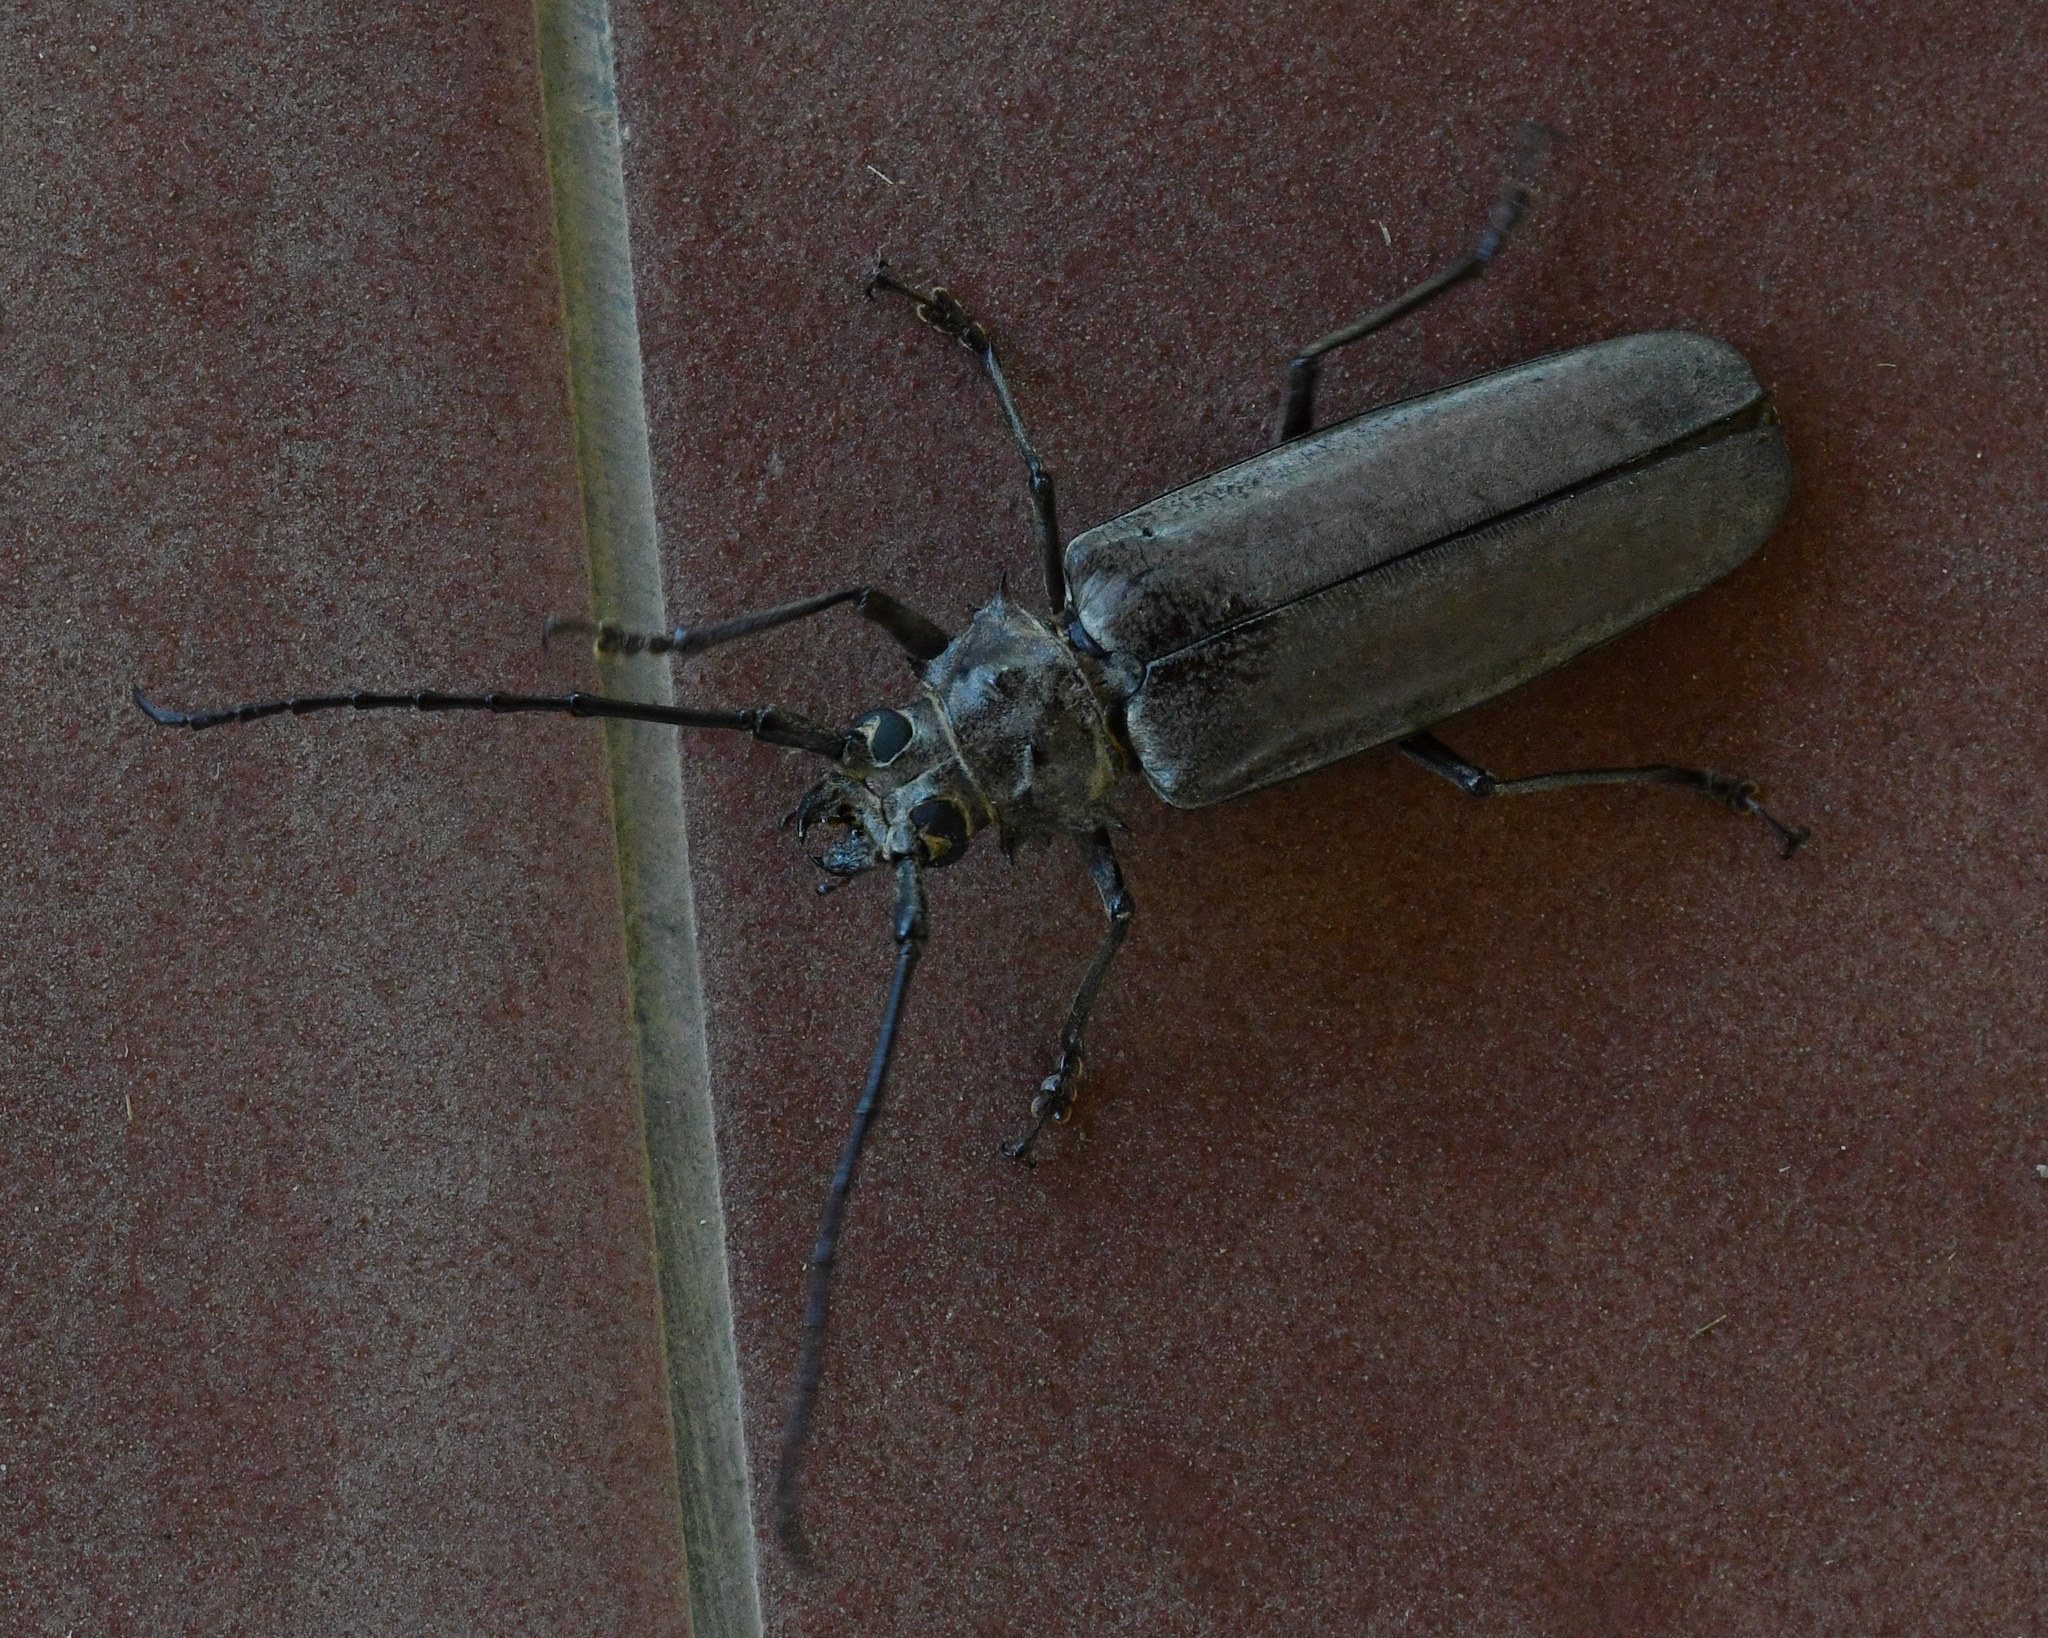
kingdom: Animalia
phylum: Arthropoda
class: Insecta
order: Coleoptera
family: Cerambycidae
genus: Callipogon
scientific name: Callipogon sericeus
